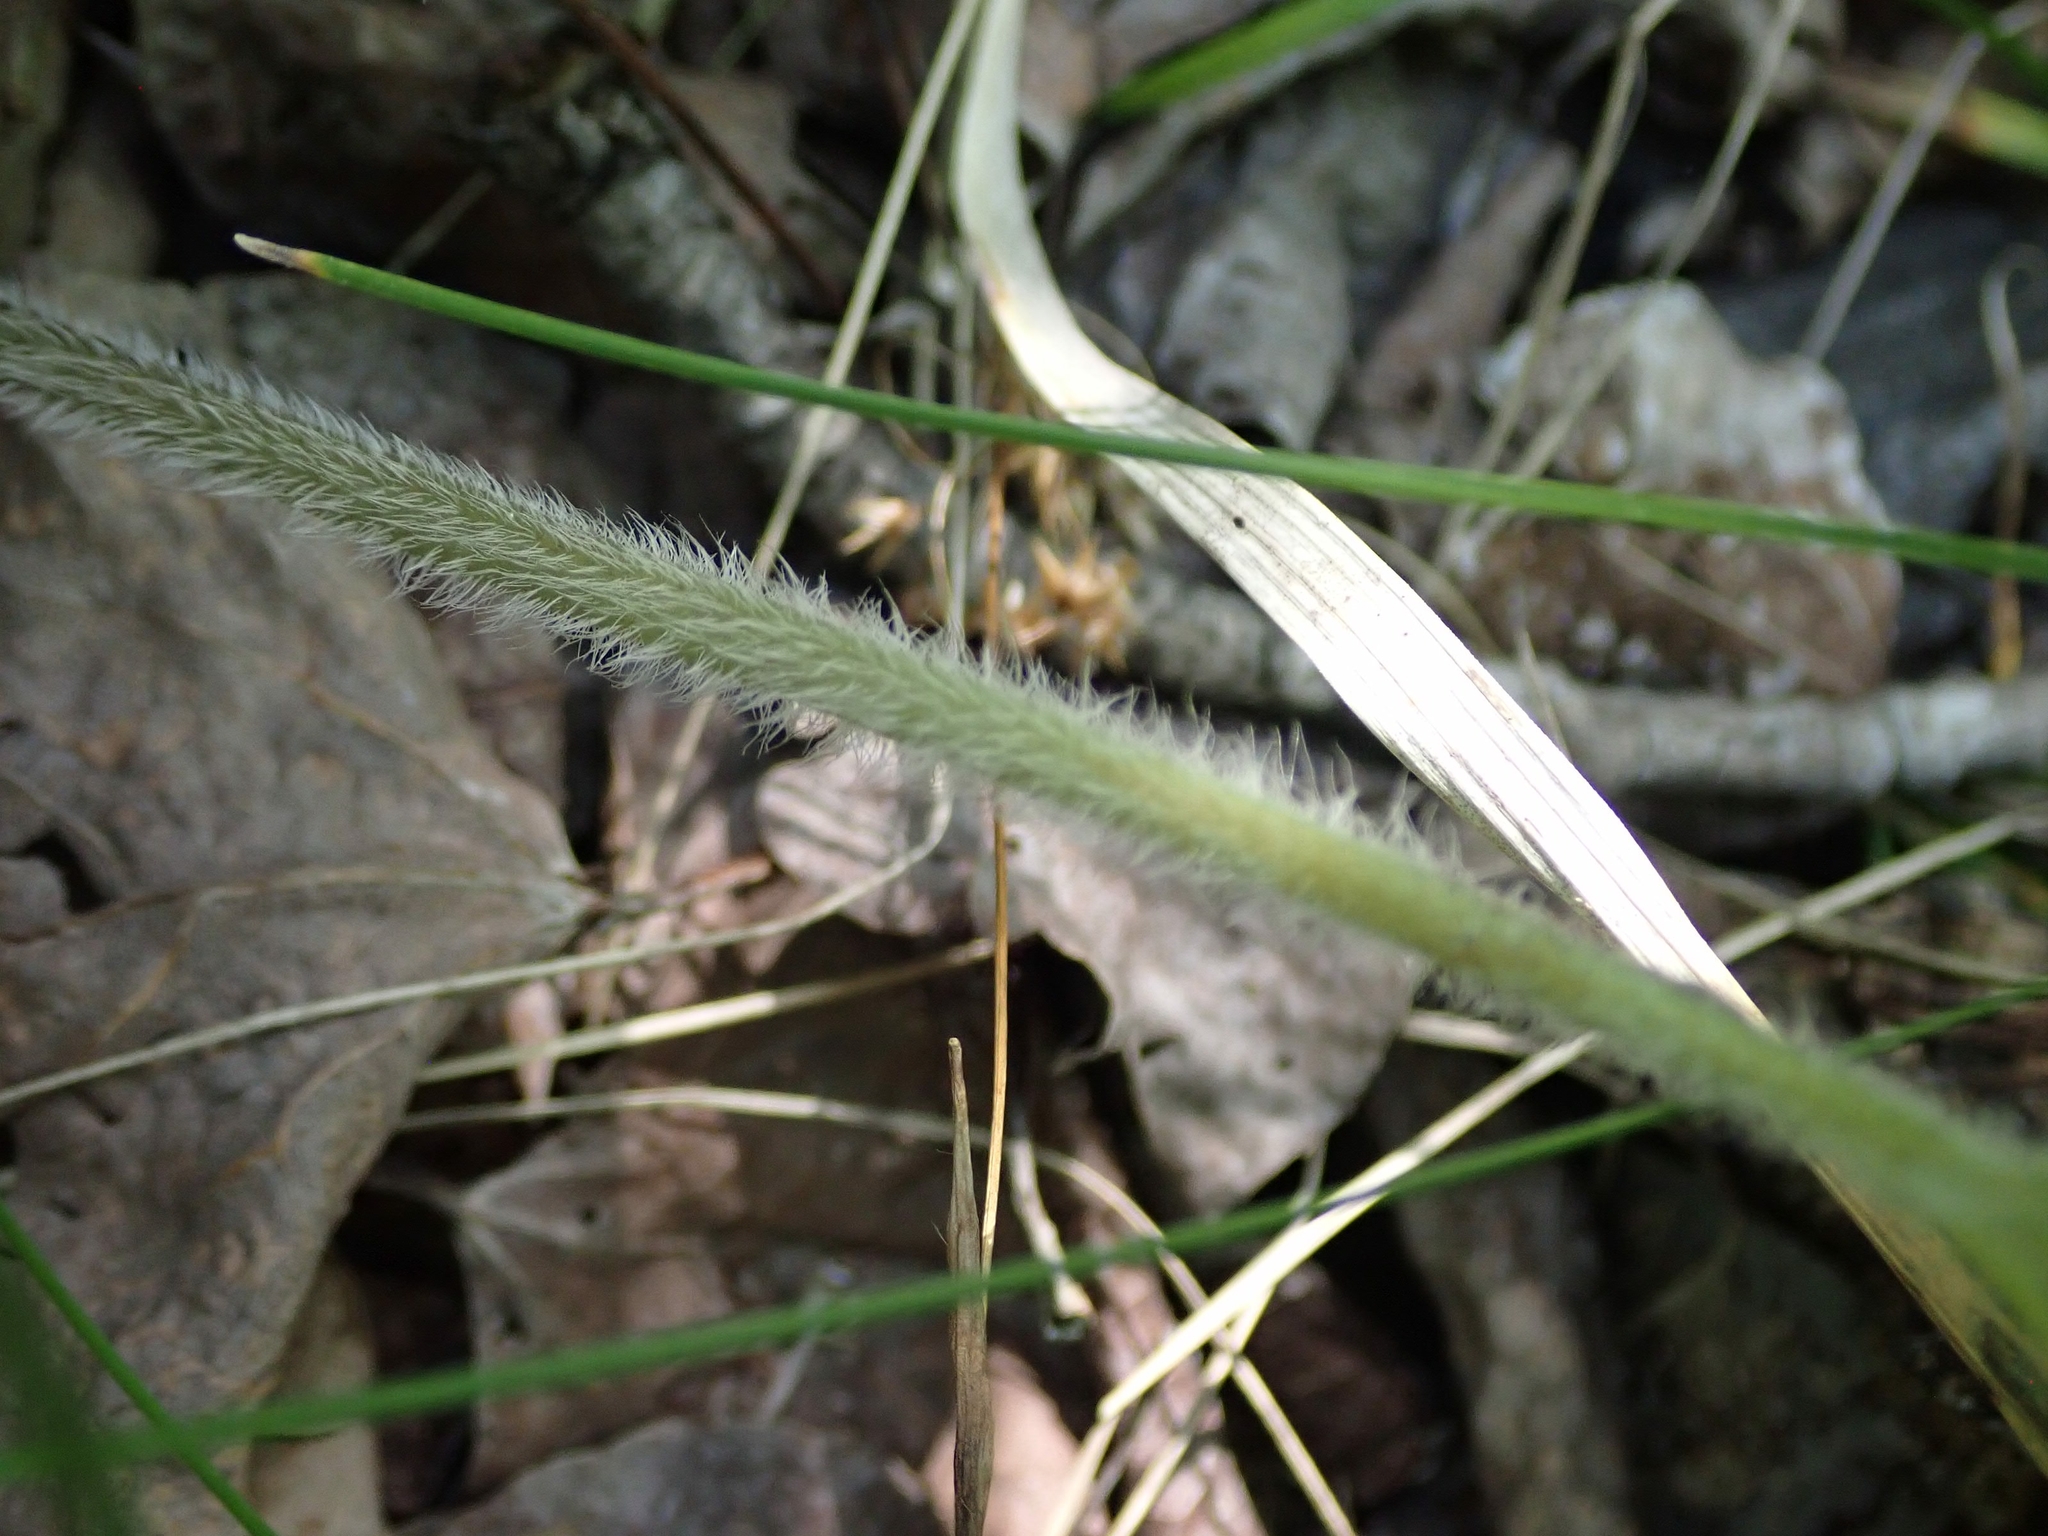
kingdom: Plantae
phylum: Tracheophyta
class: Magnoliopsida
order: Piperales
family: Aristolochiaceae
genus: Asarum
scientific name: Asarum canadense
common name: Wild ginger
